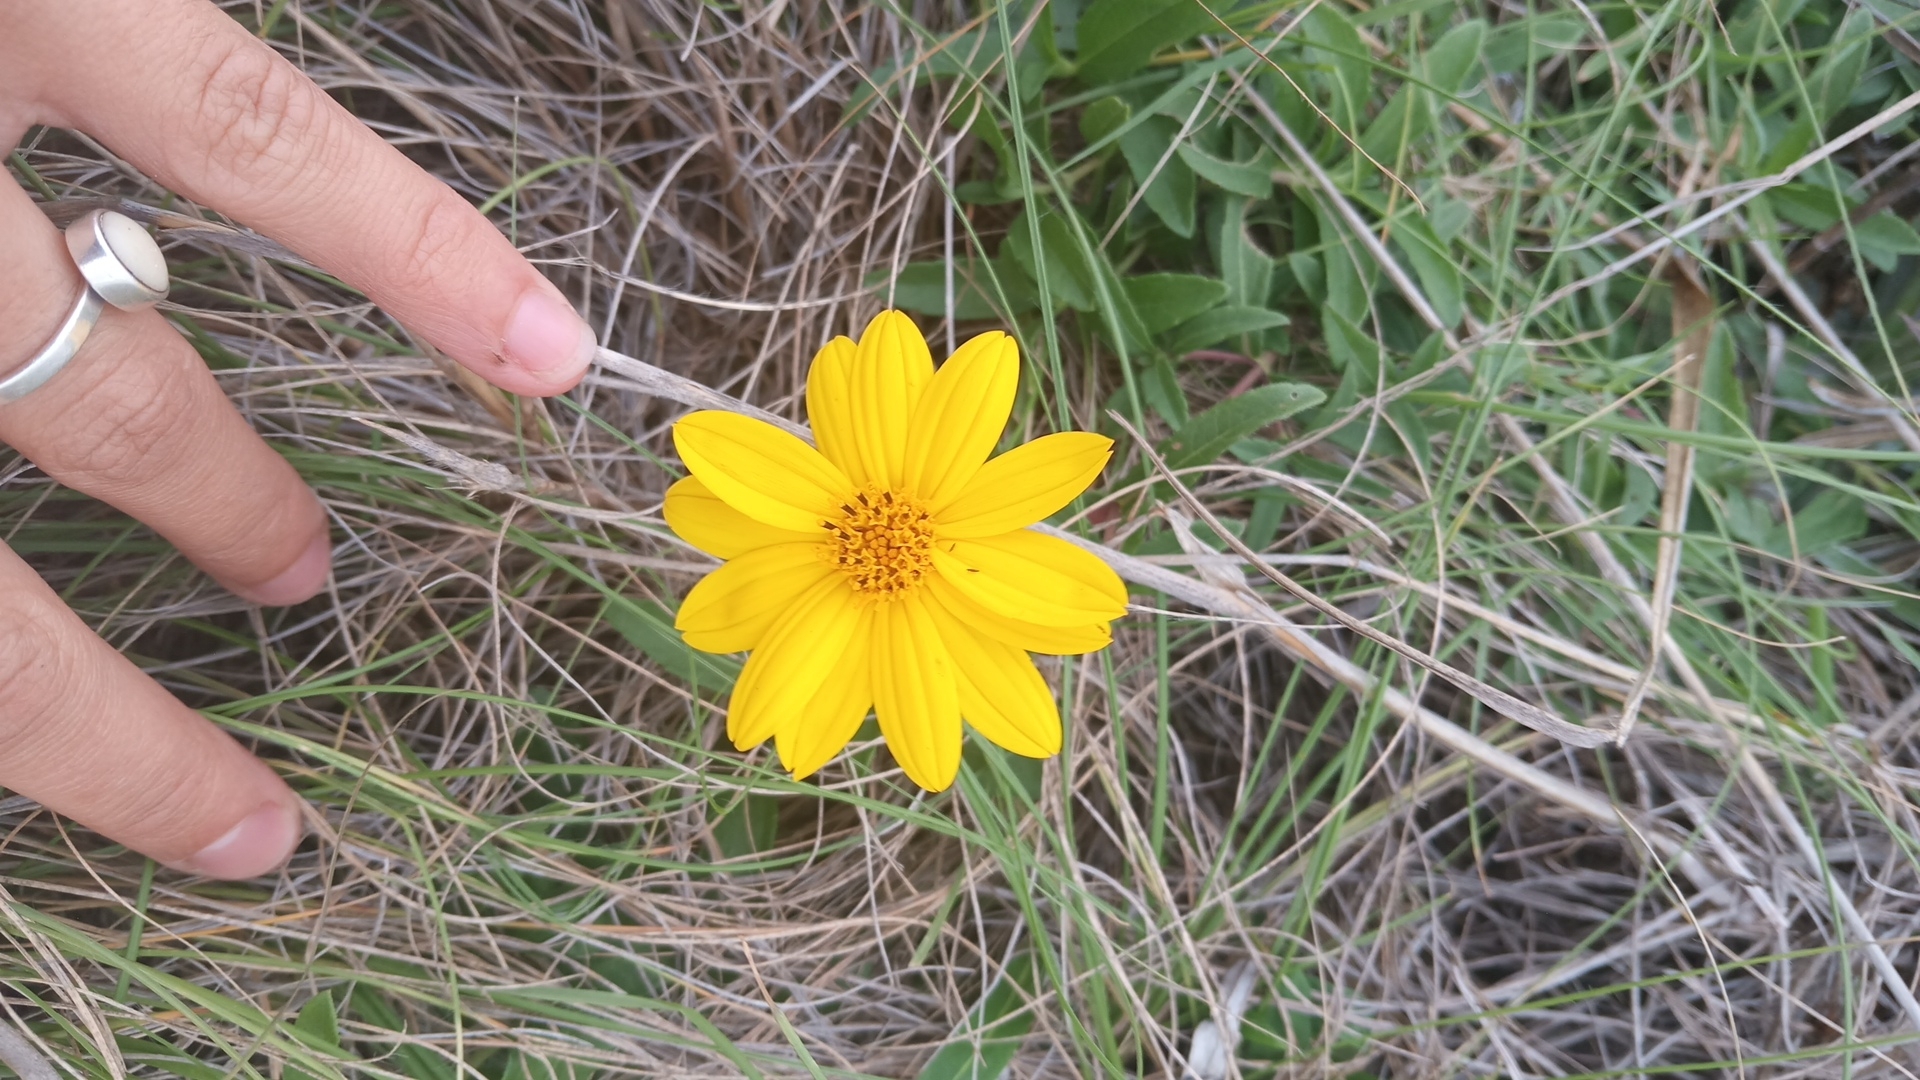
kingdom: Plantae
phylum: Tracheophyta
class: Magnoliopsida
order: Asterales
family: Asteraceae
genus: Wedelia
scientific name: Wedelia montevidensis
